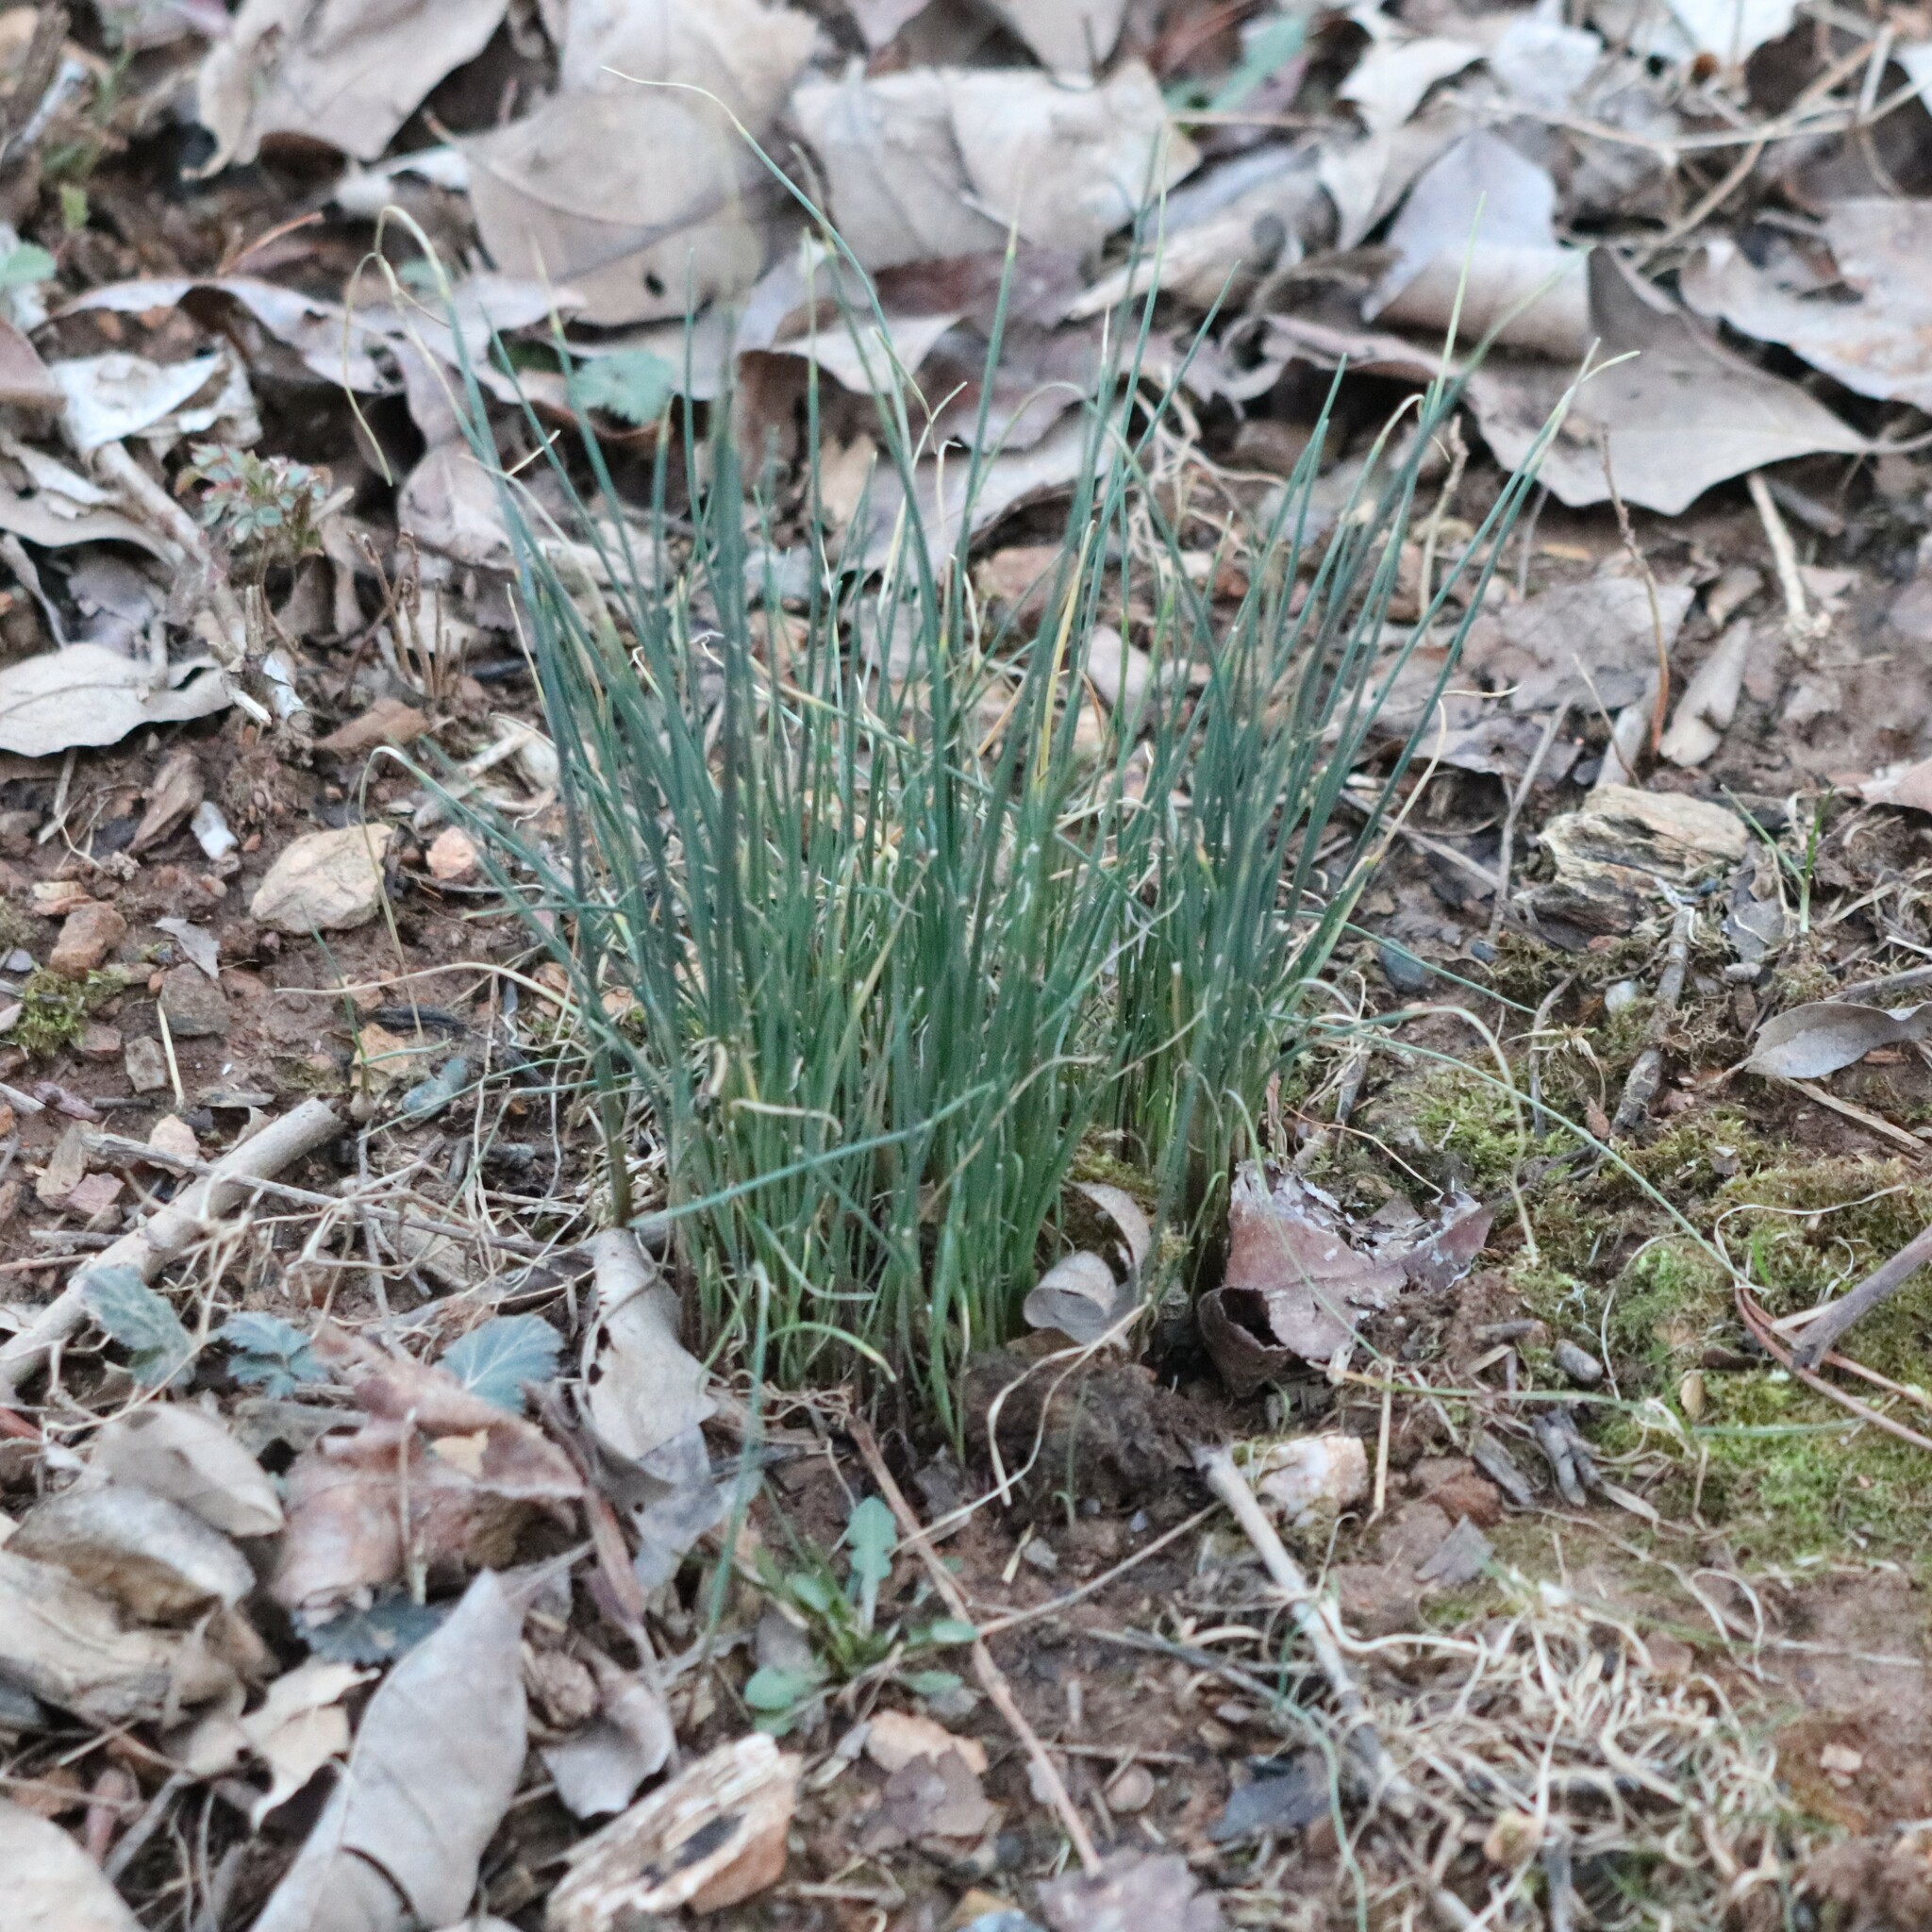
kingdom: Plantae
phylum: Tracheophyta
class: Liliopsida
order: Asparagales
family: Amaryllidaceae
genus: Allium
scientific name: Allium vineale
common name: Crow garlic
